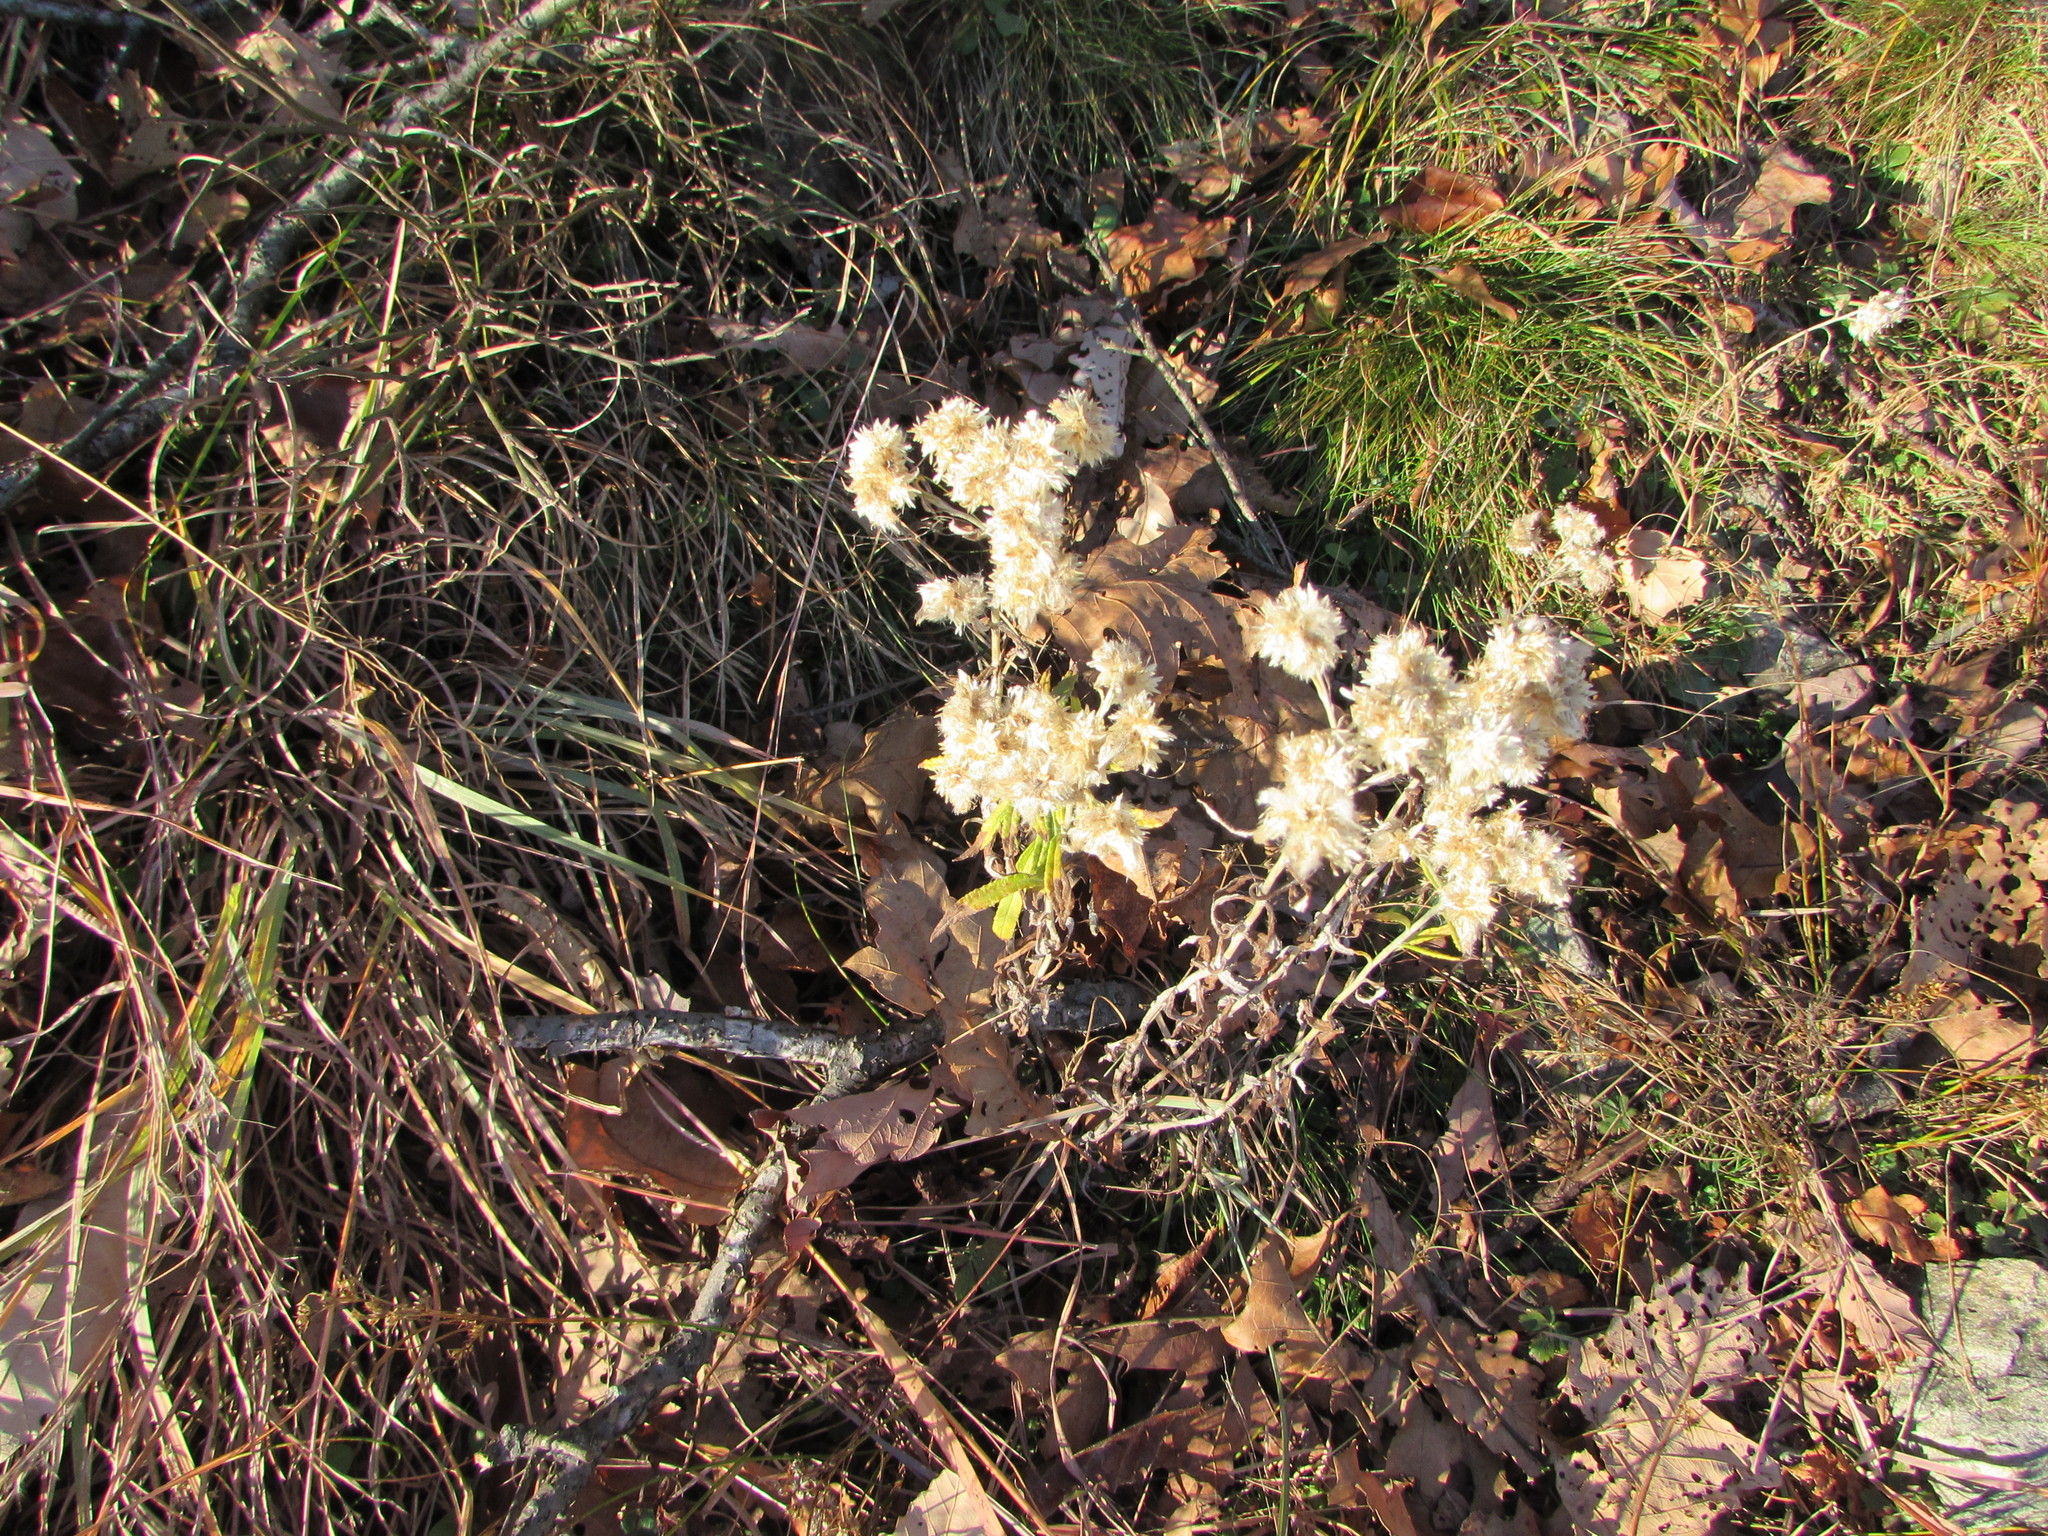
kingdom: Plantae
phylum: Tracheophyta
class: Magnoliopsida
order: Asterales
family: Asteraceae
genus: Anaphalis
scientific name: Anaphalis margaritacea
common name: Pearly everlasting
